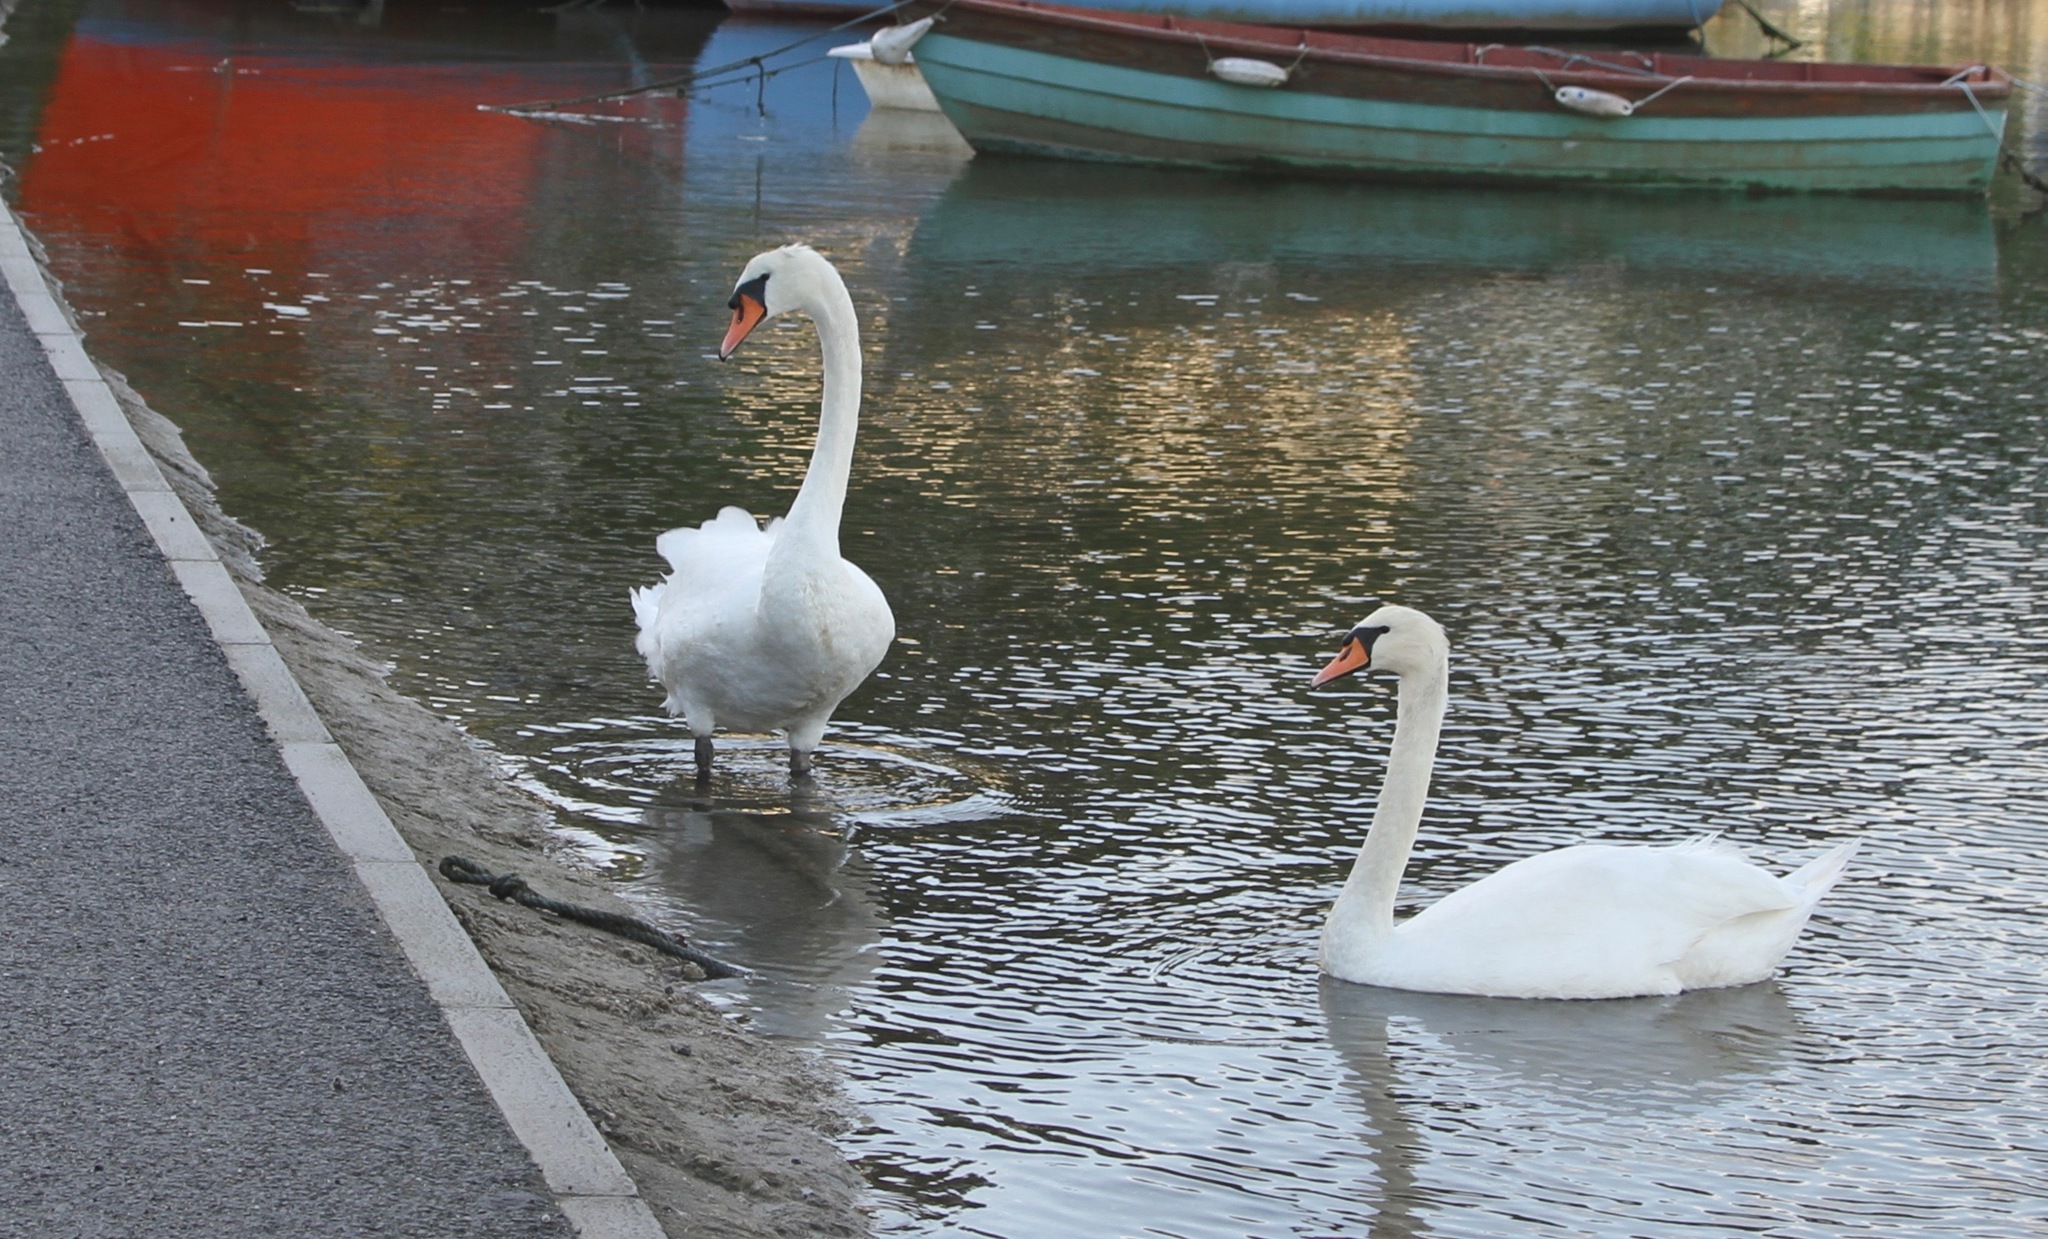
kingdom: Animalia
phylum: Chordata
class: Aves
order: Anseriformes
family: Anatidae
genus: Cygnus
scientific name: Cygnus olor
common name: Mute swan
